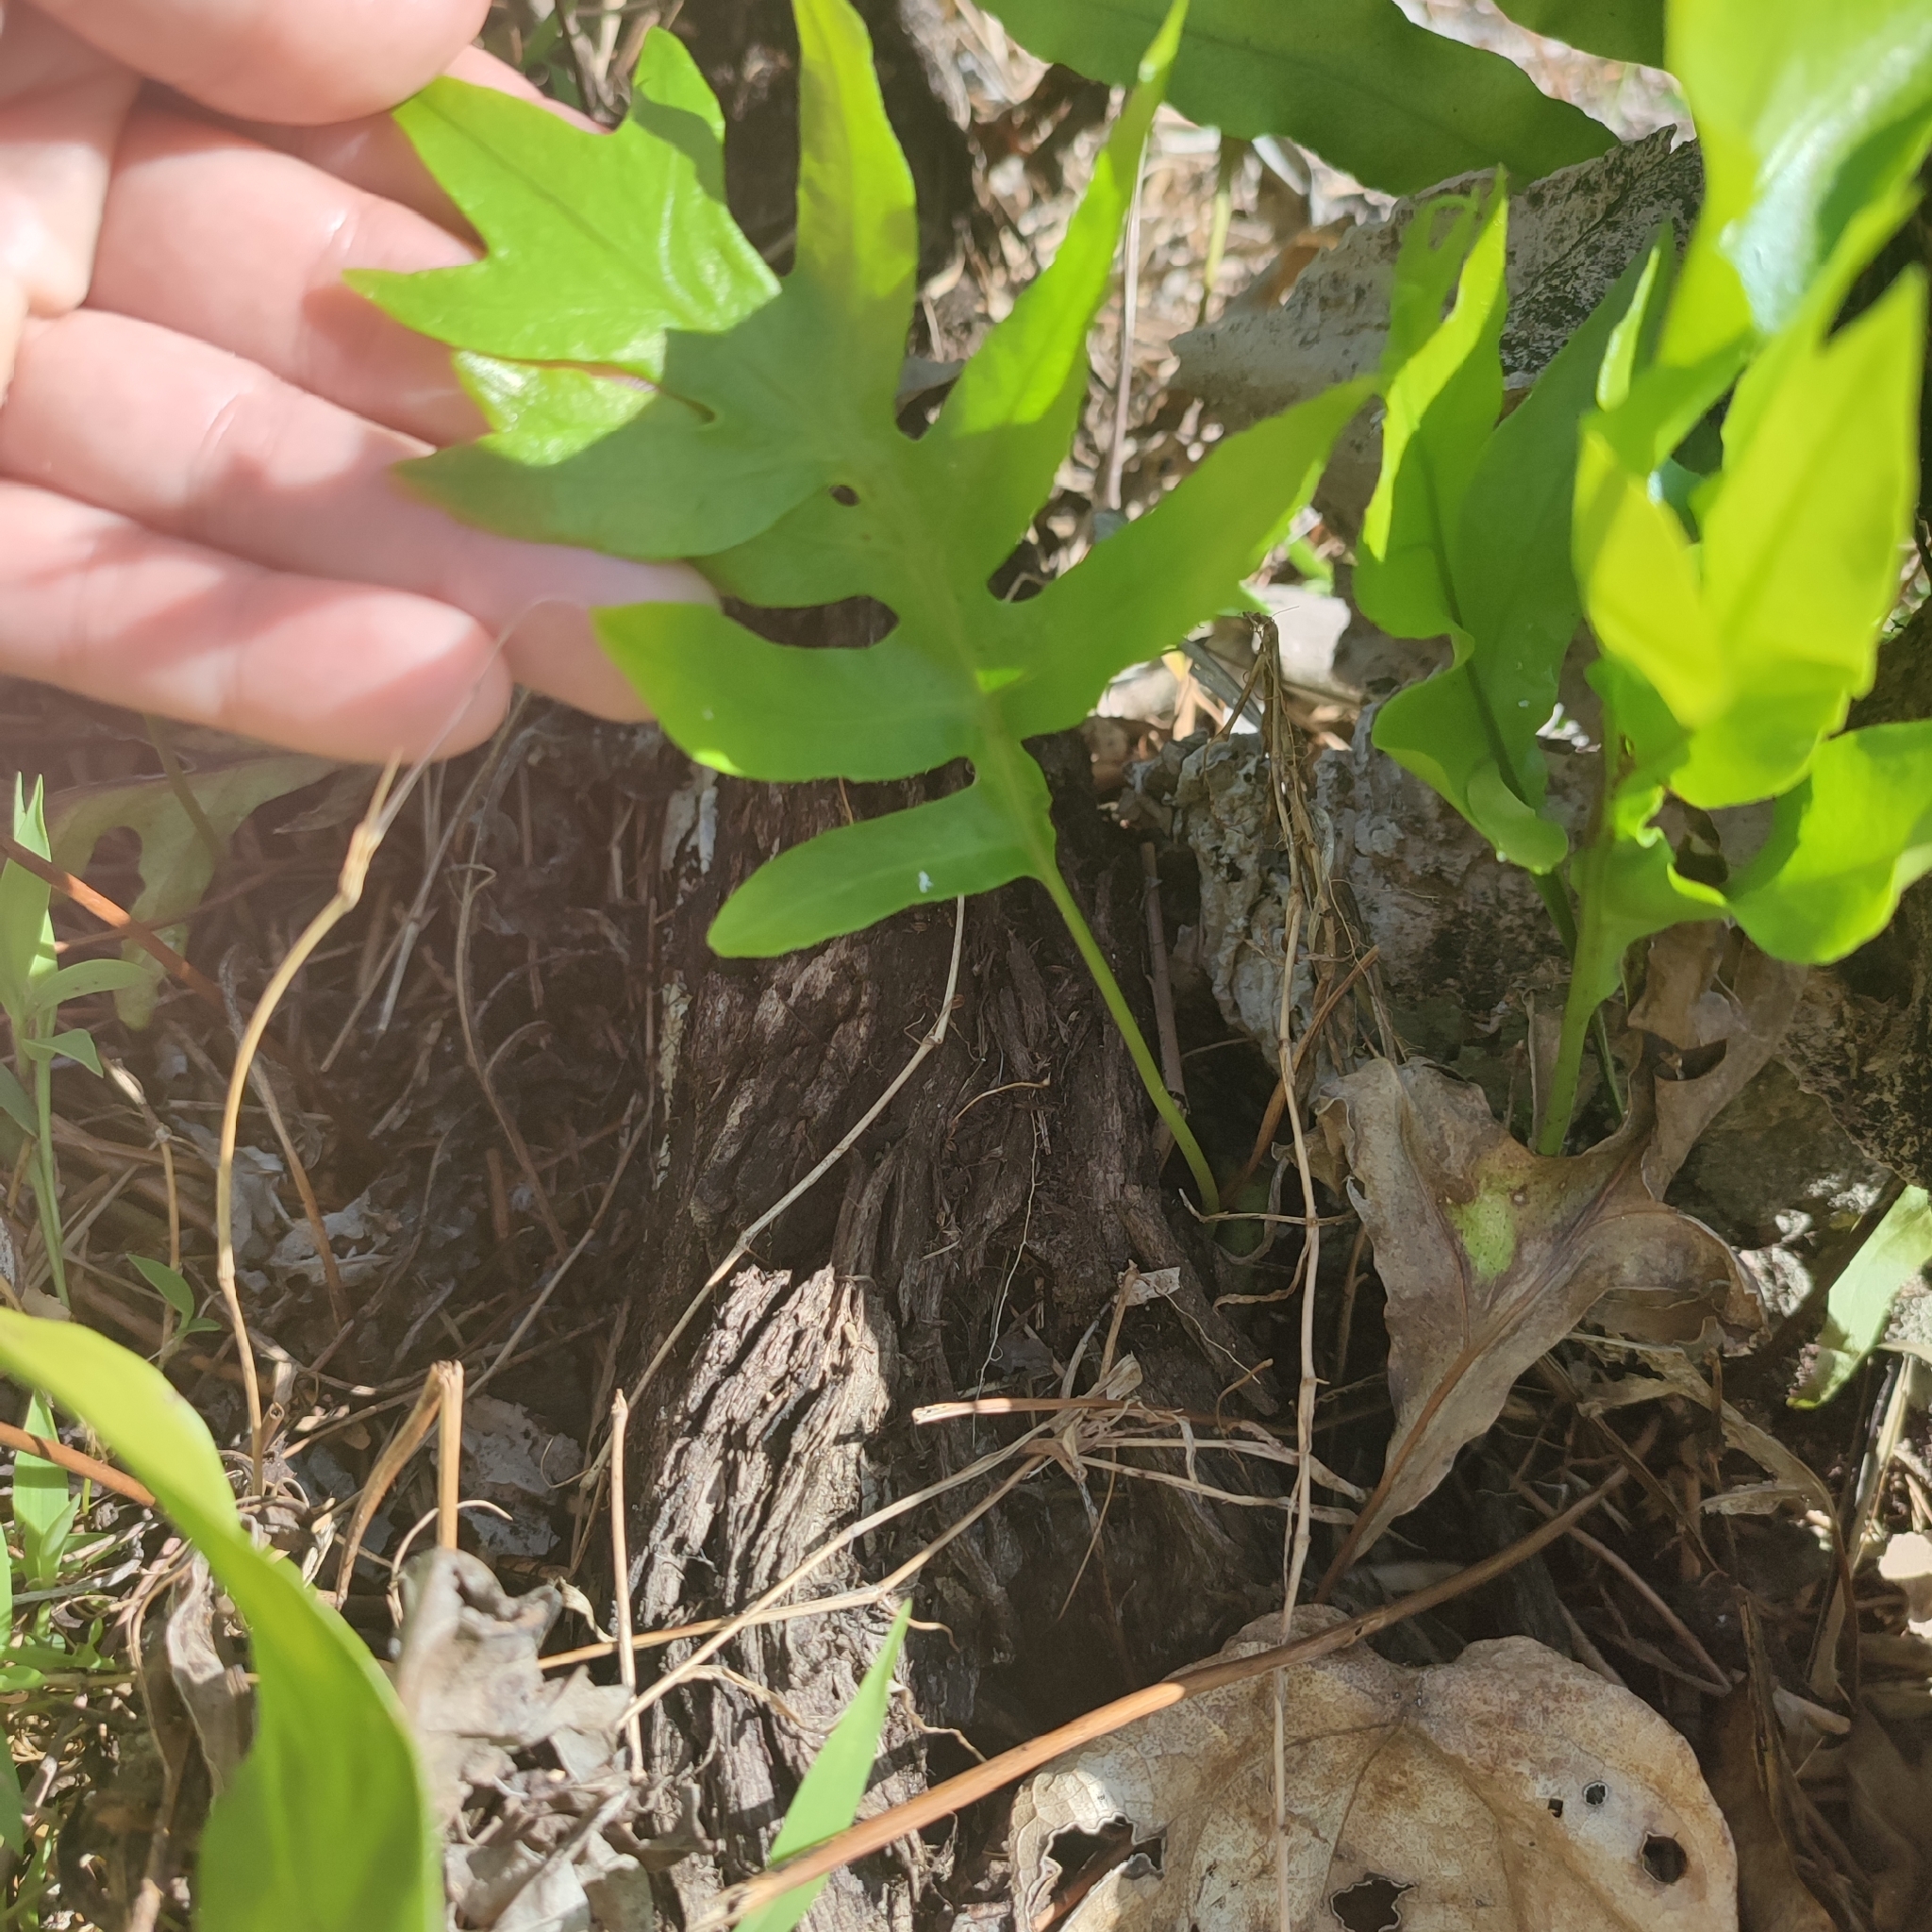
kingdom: Plantae
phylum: Tracheophyta
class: Polypodiopsida
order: Polypodiales
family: Polypodiaceae
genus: Microsorum
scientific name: Microsorum scolopendria
